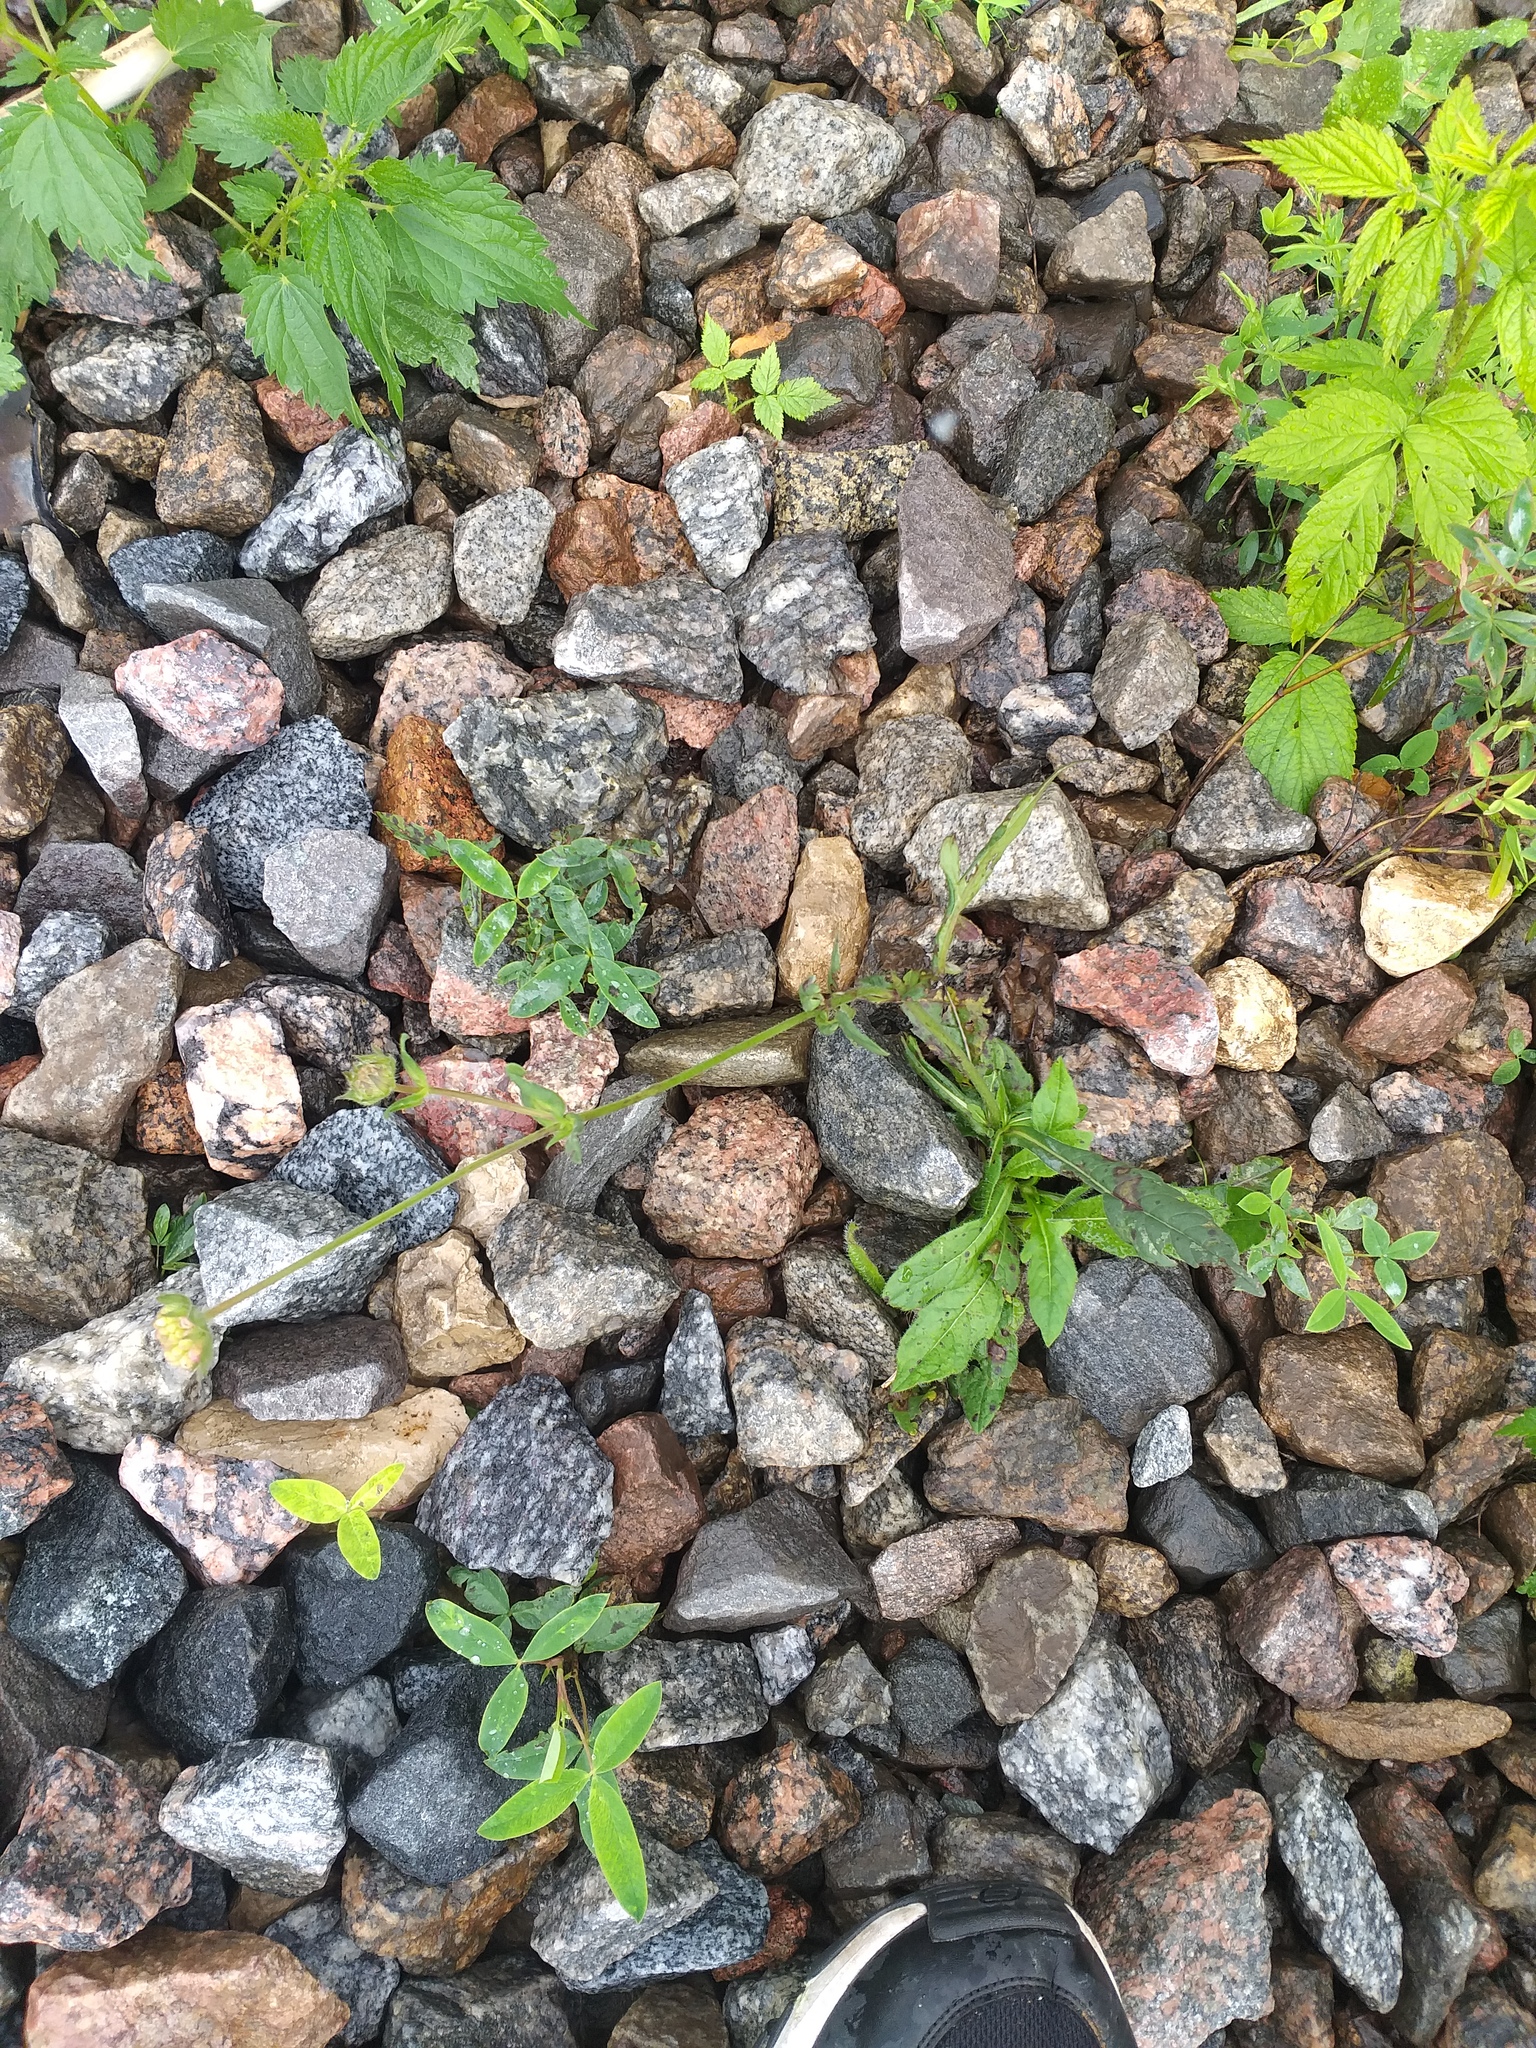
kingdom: Plantae
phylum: Tracheophyta
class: Magnoliopsida
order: Dipsacales
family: Caprifoliaceae
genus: Knautia
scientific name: Knautia arvensis
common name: Field scabiosa
